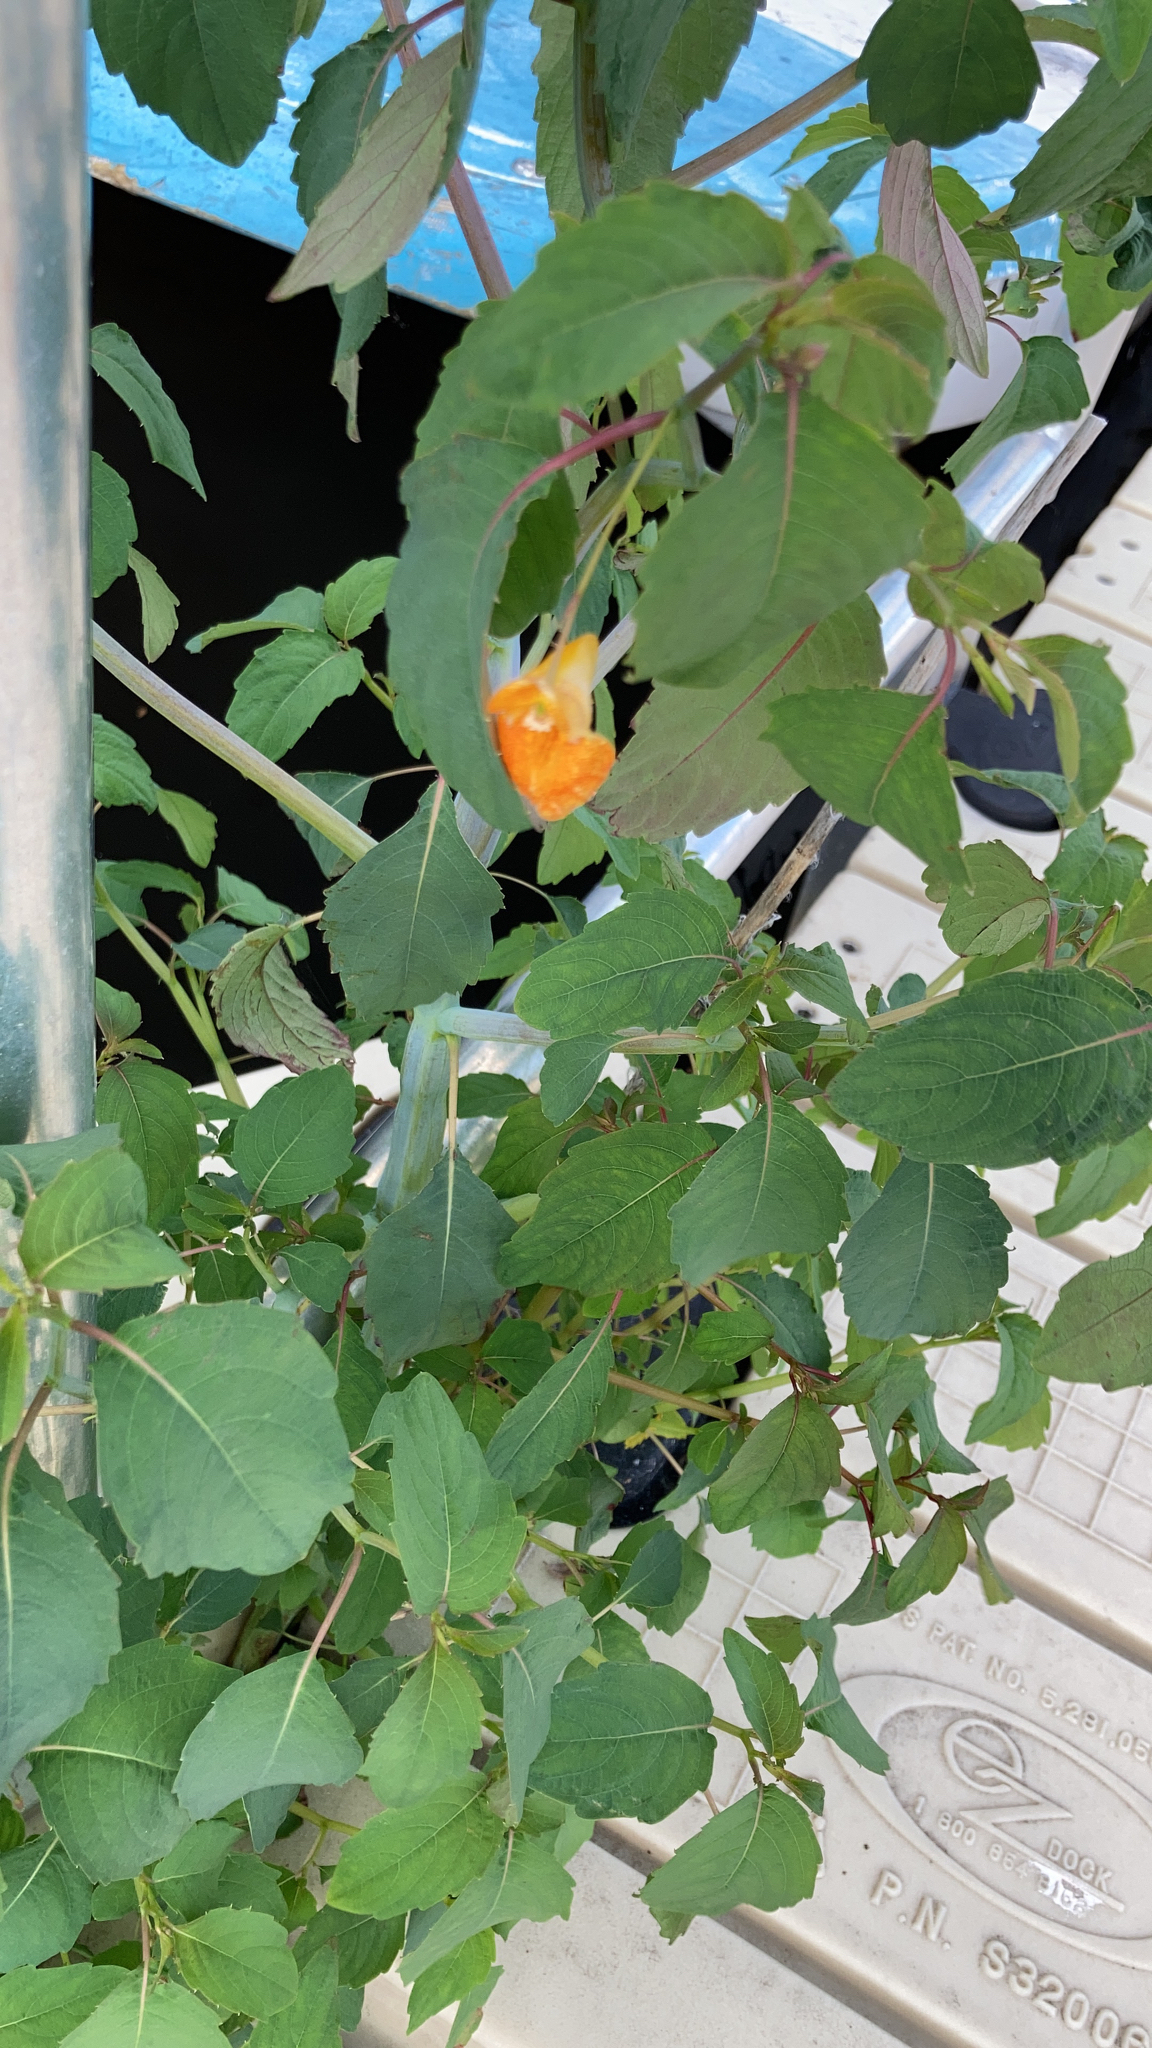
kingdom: Plantae
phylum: Tracheophyta
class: Magnoliopsida
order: Ericales
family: Balsaminaceae
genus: Impatiens
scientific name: Impatiens capensis
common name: Orange balsam
